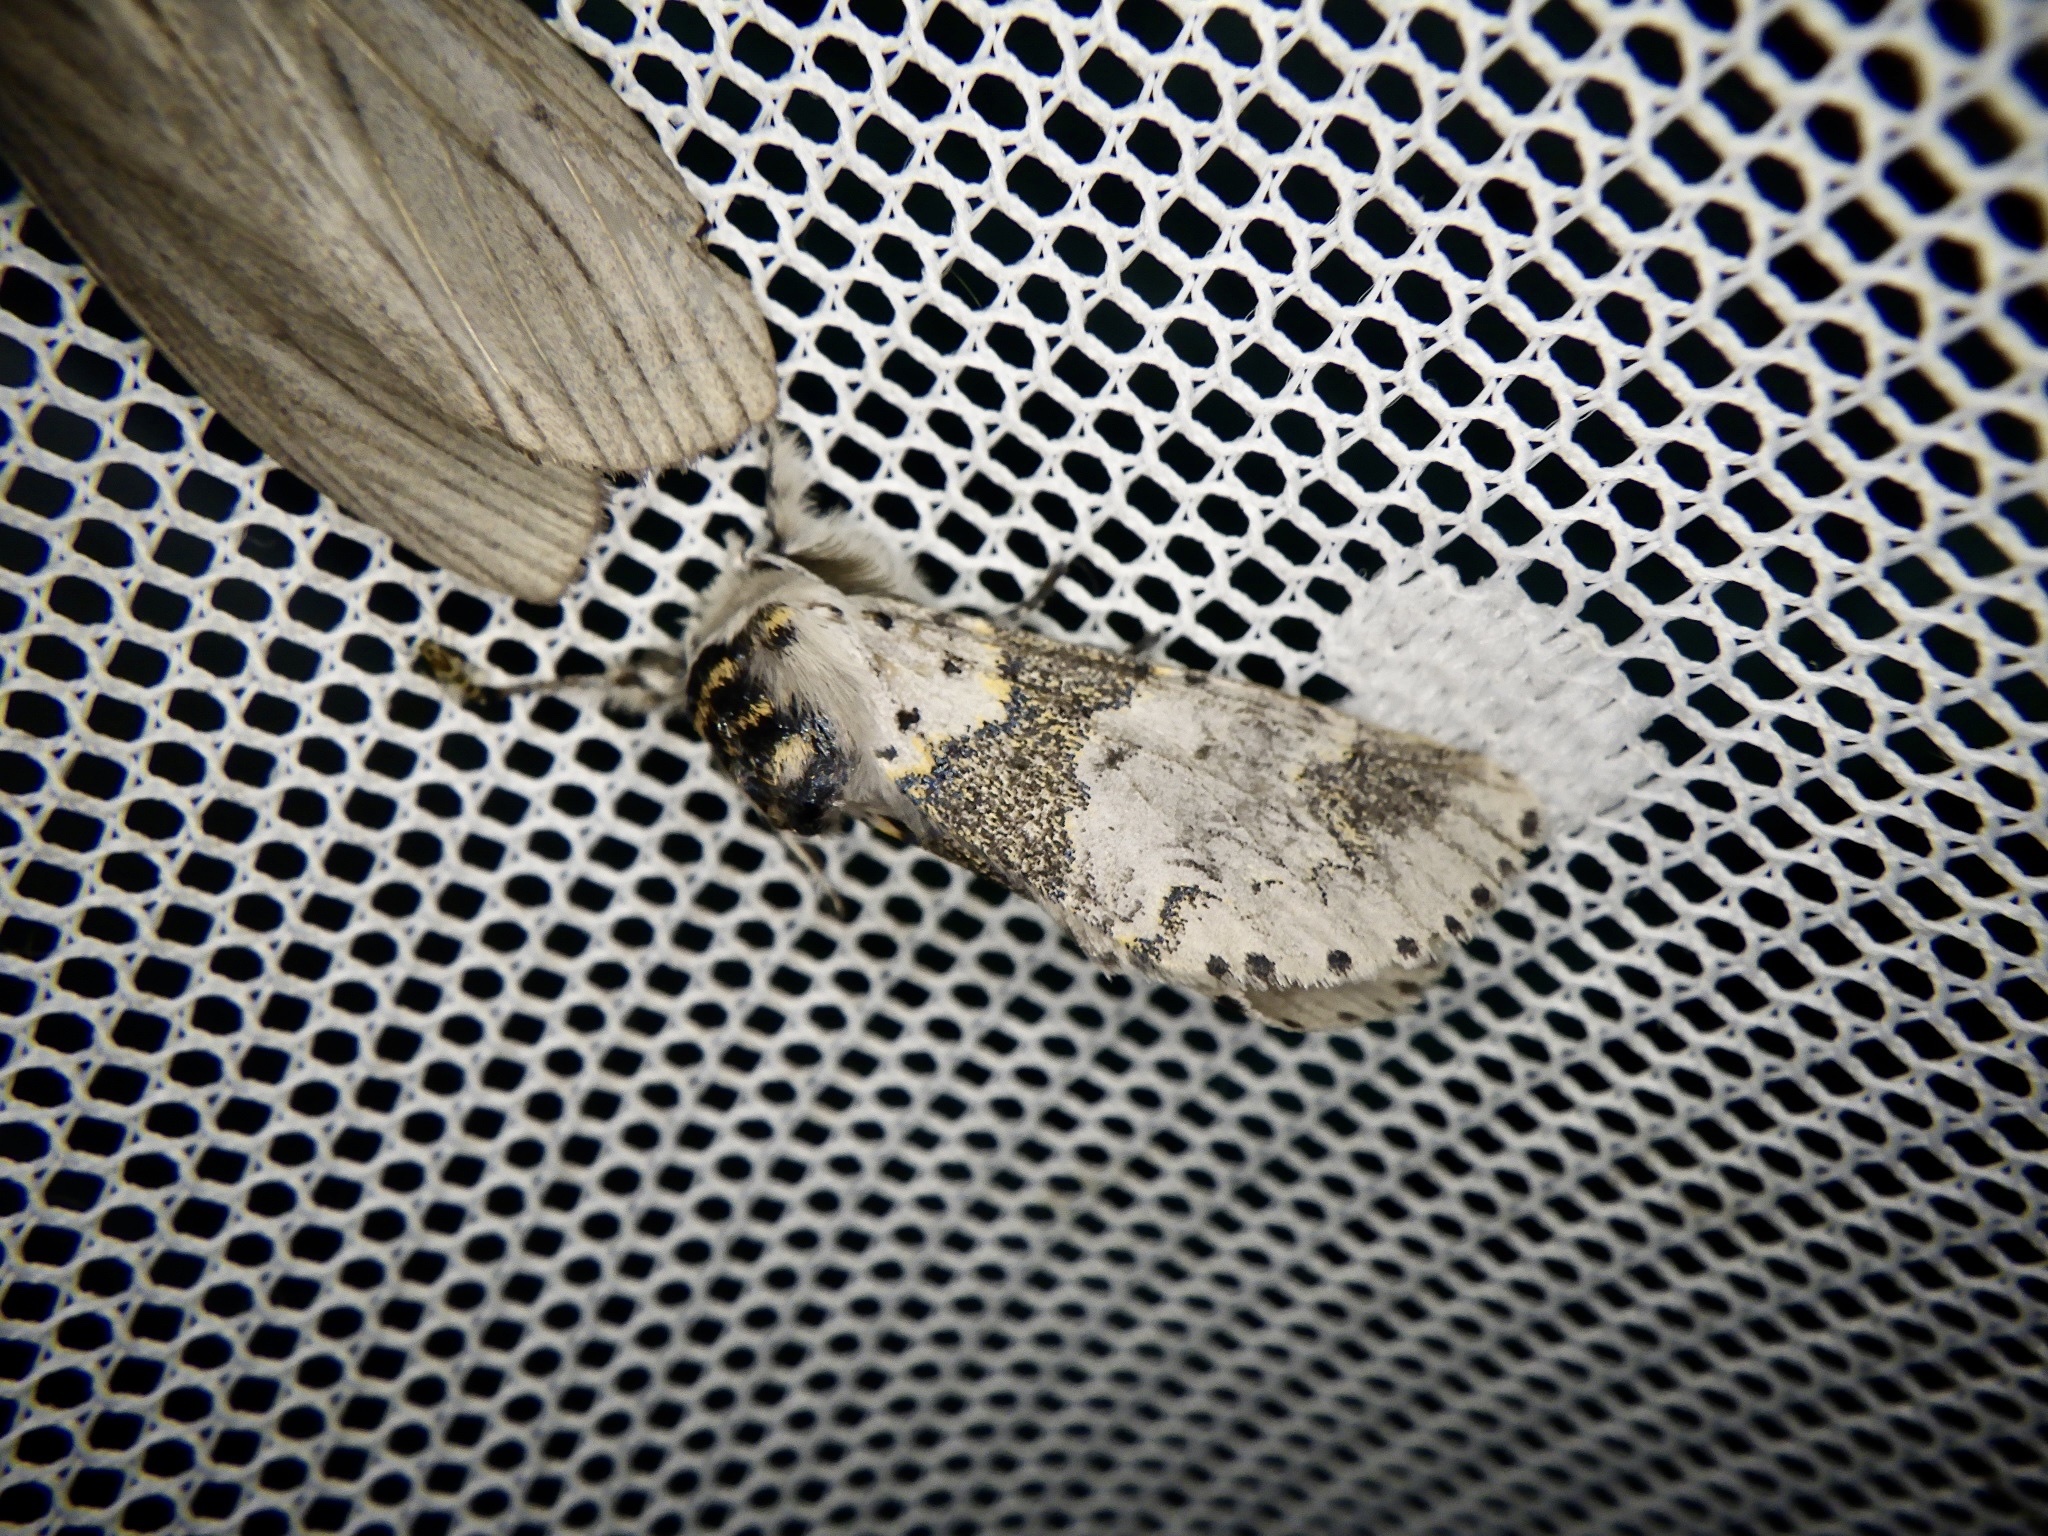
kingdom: Animalia
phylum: Arthropoda
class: Insecta
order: Lepidoptera
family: Notodontidae
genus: Furcula
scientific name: Furcula furcula
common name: Sallow kitten
